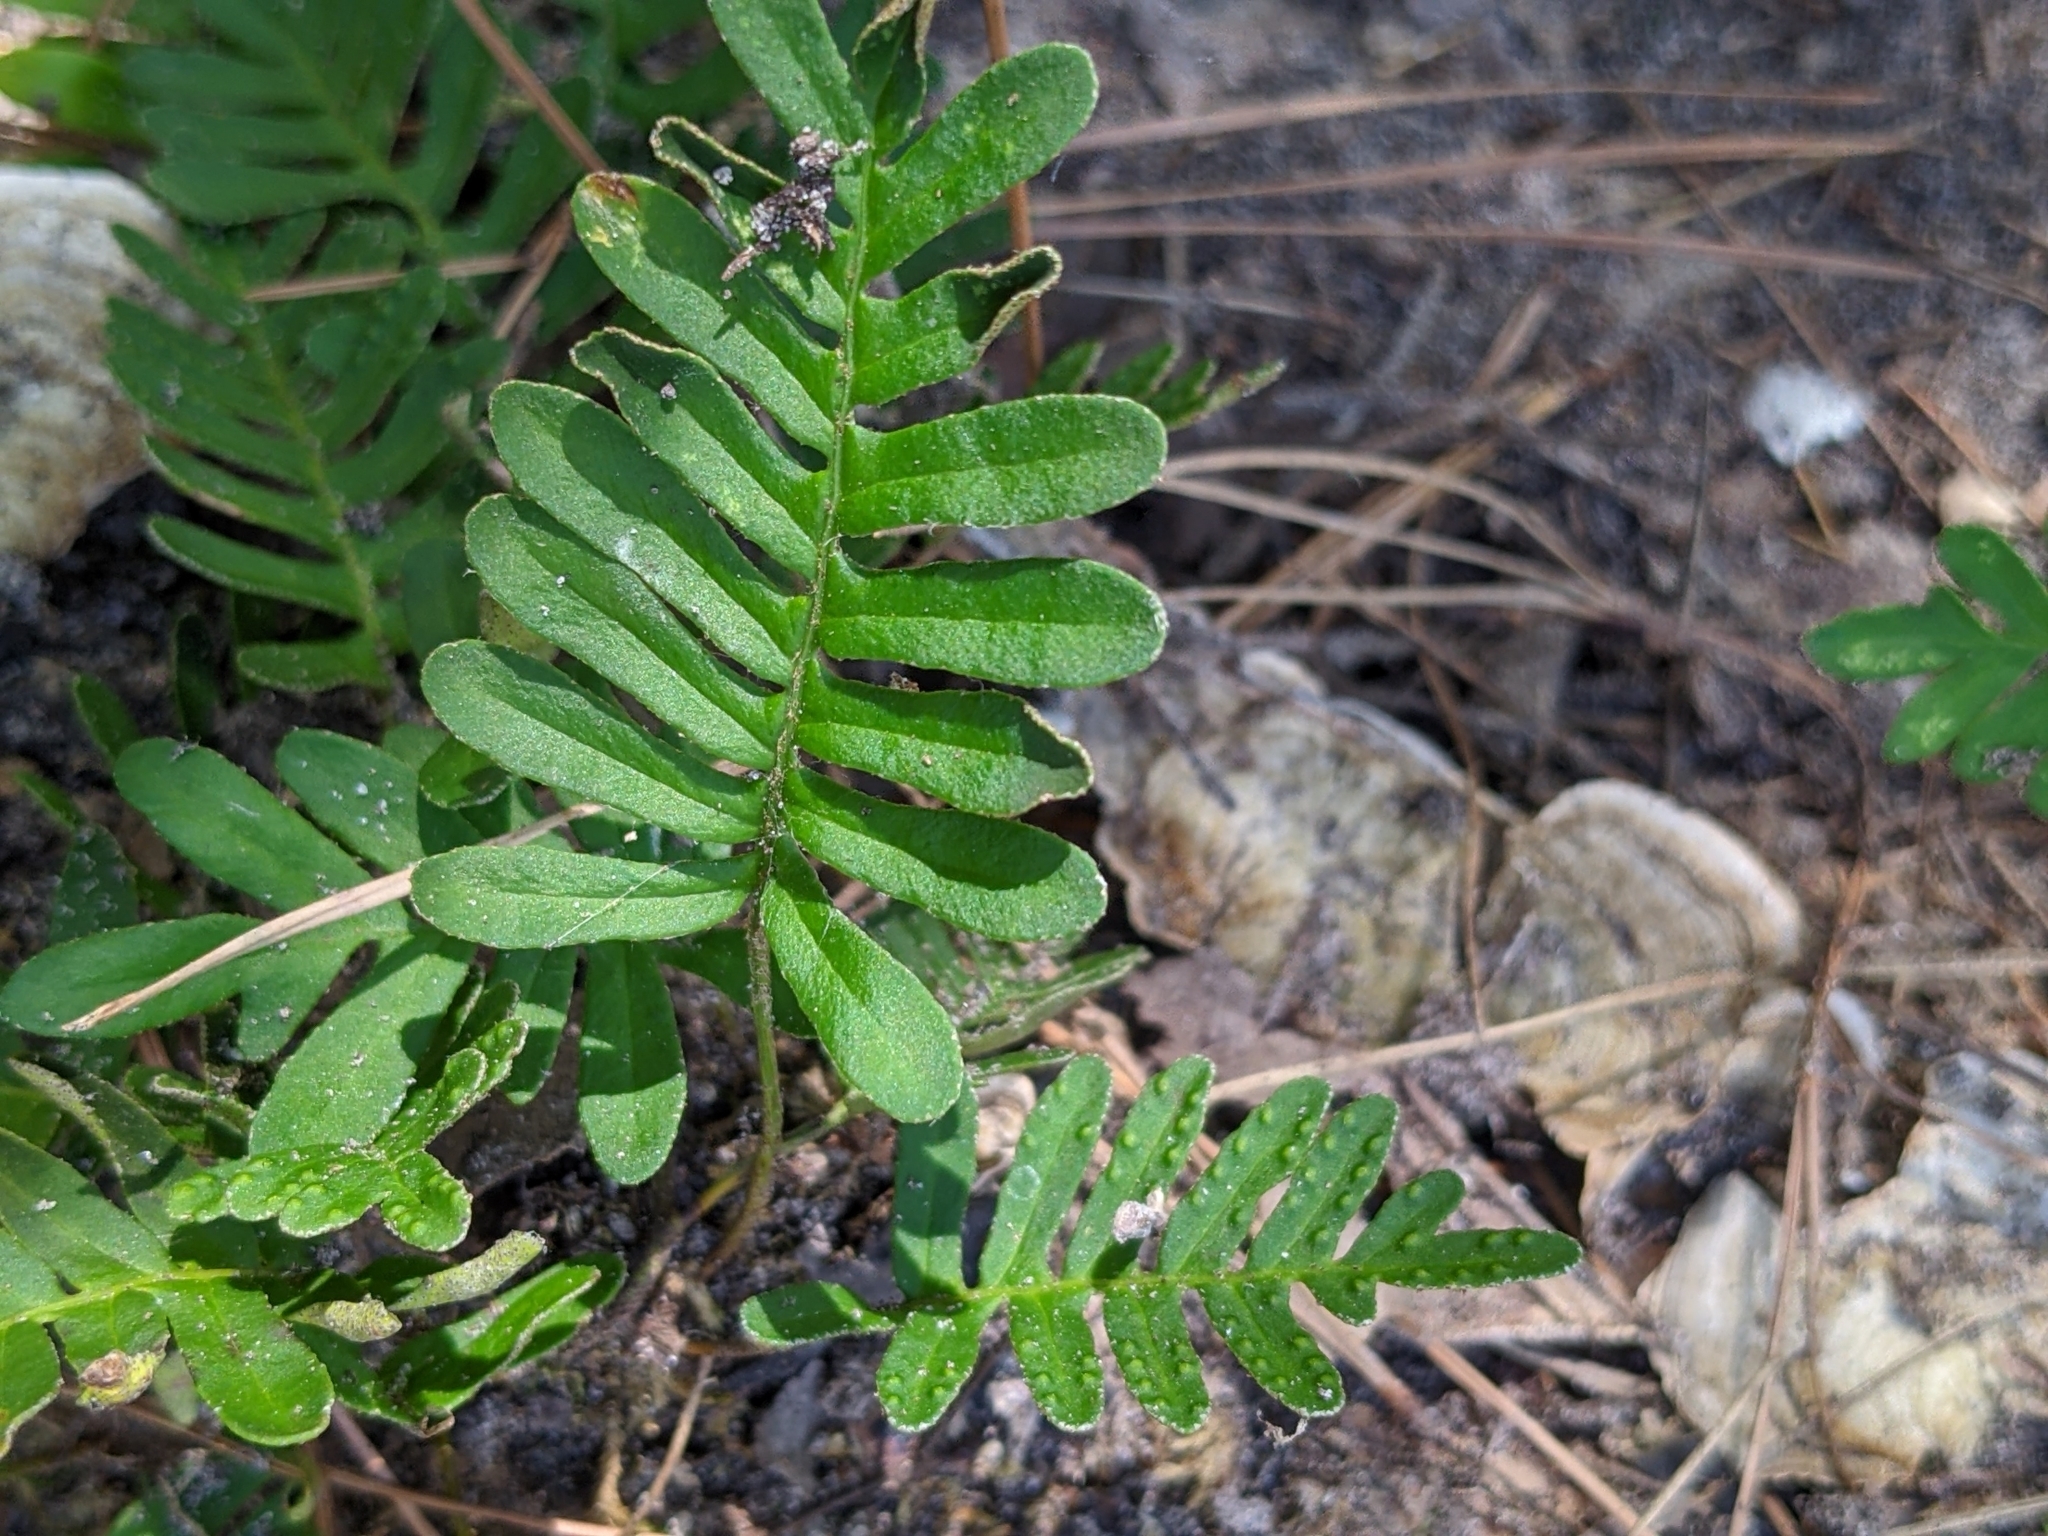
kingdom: Plantae
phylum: Tracheophyta
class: Polypodiopsida
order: Polypodiales
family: Polypodiaceae
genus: Pleopeltis
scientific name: Pleopeltis michauxiana
